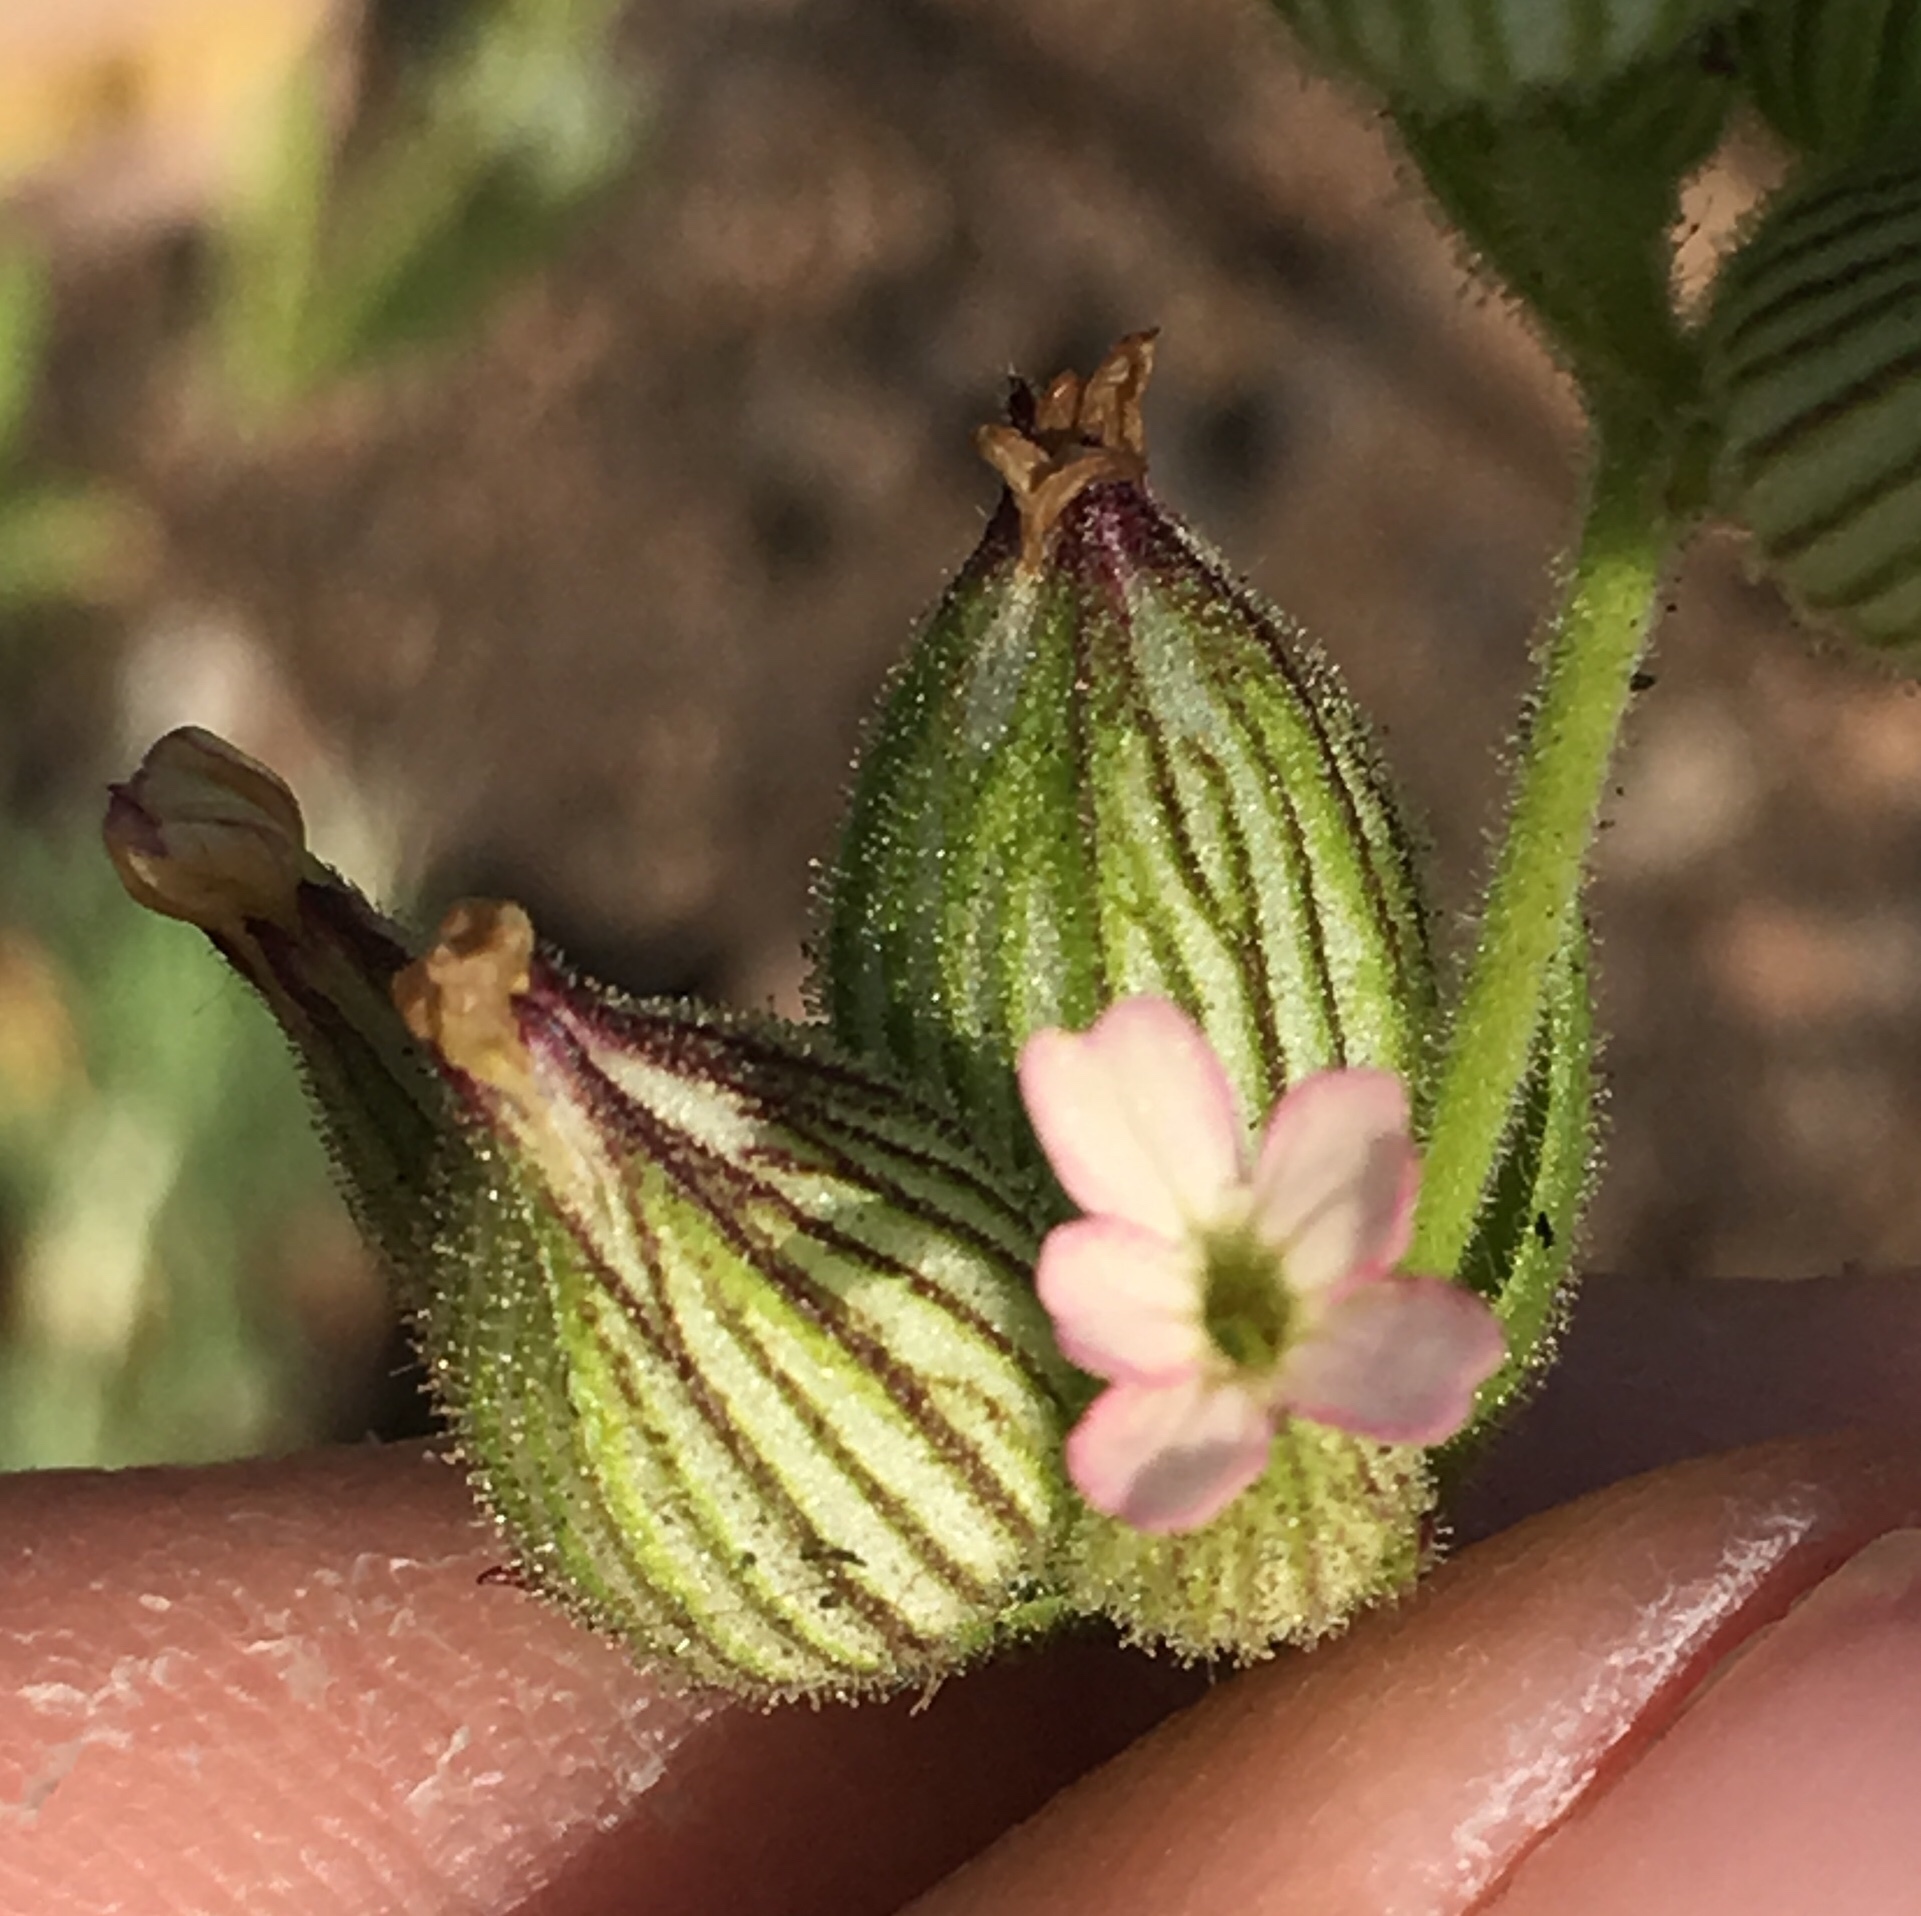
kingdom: Plantae
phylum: Tracheophyta
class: Magnoliopsida
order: Caryophyllales
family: Caryophyllaceae
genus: Silene
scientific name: Silene coniflora
